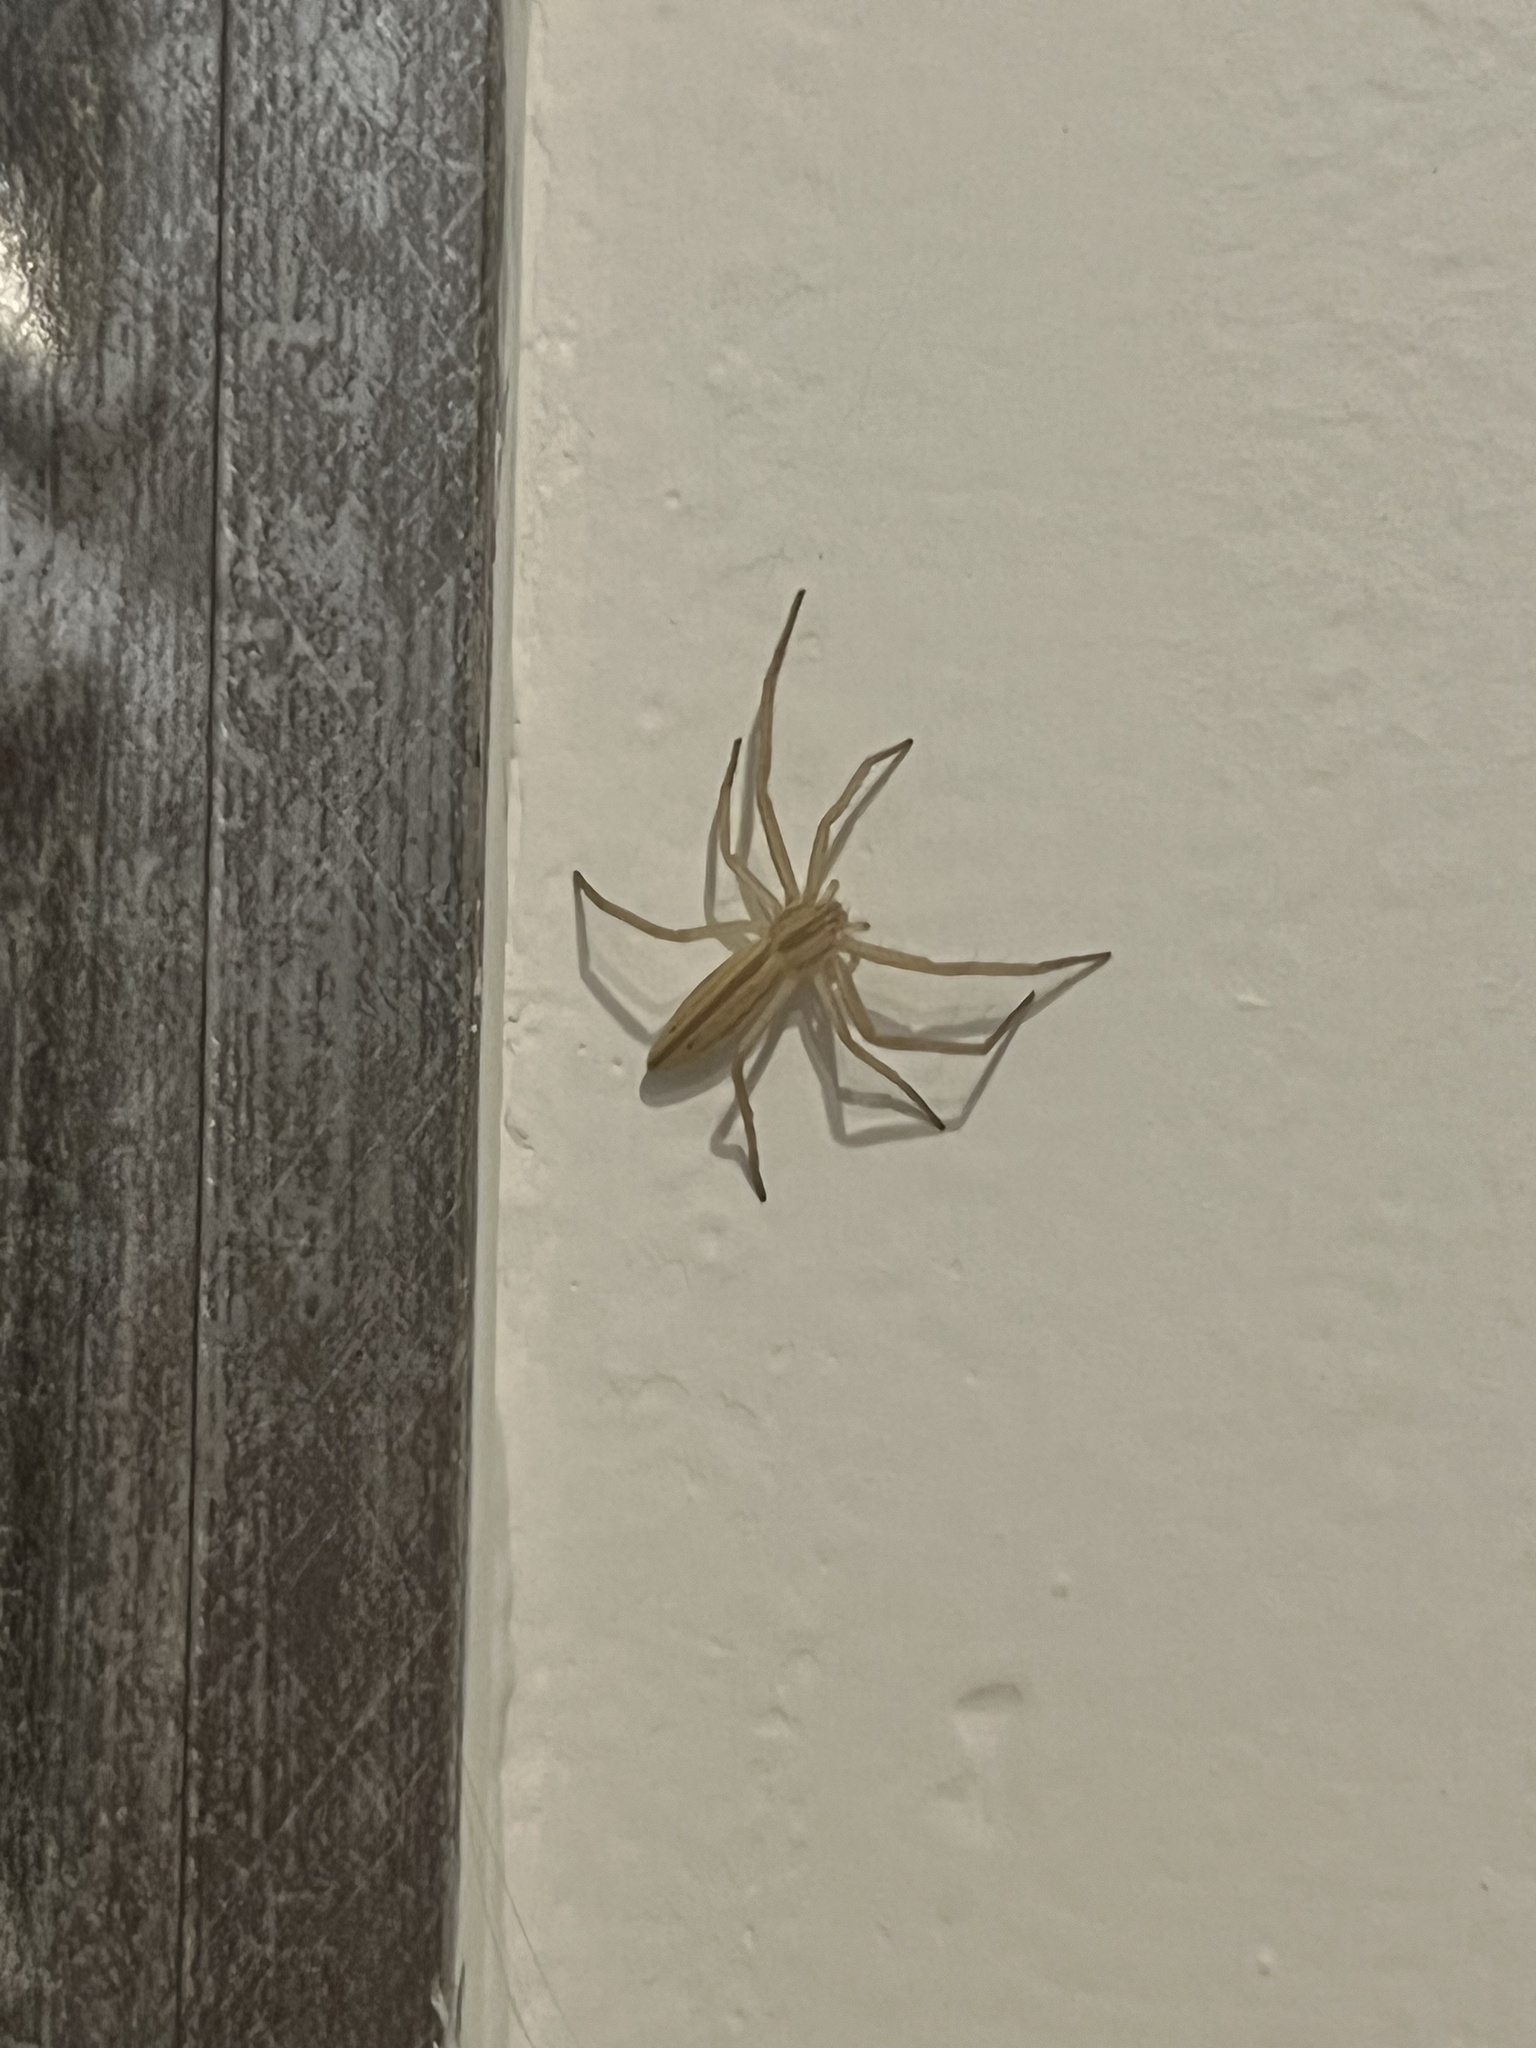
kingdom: Animalia
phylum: Arthropoda
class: Arachnida
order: Araneae
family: Philodromidae
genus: Tibellus
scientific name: Tibellus oblongus
